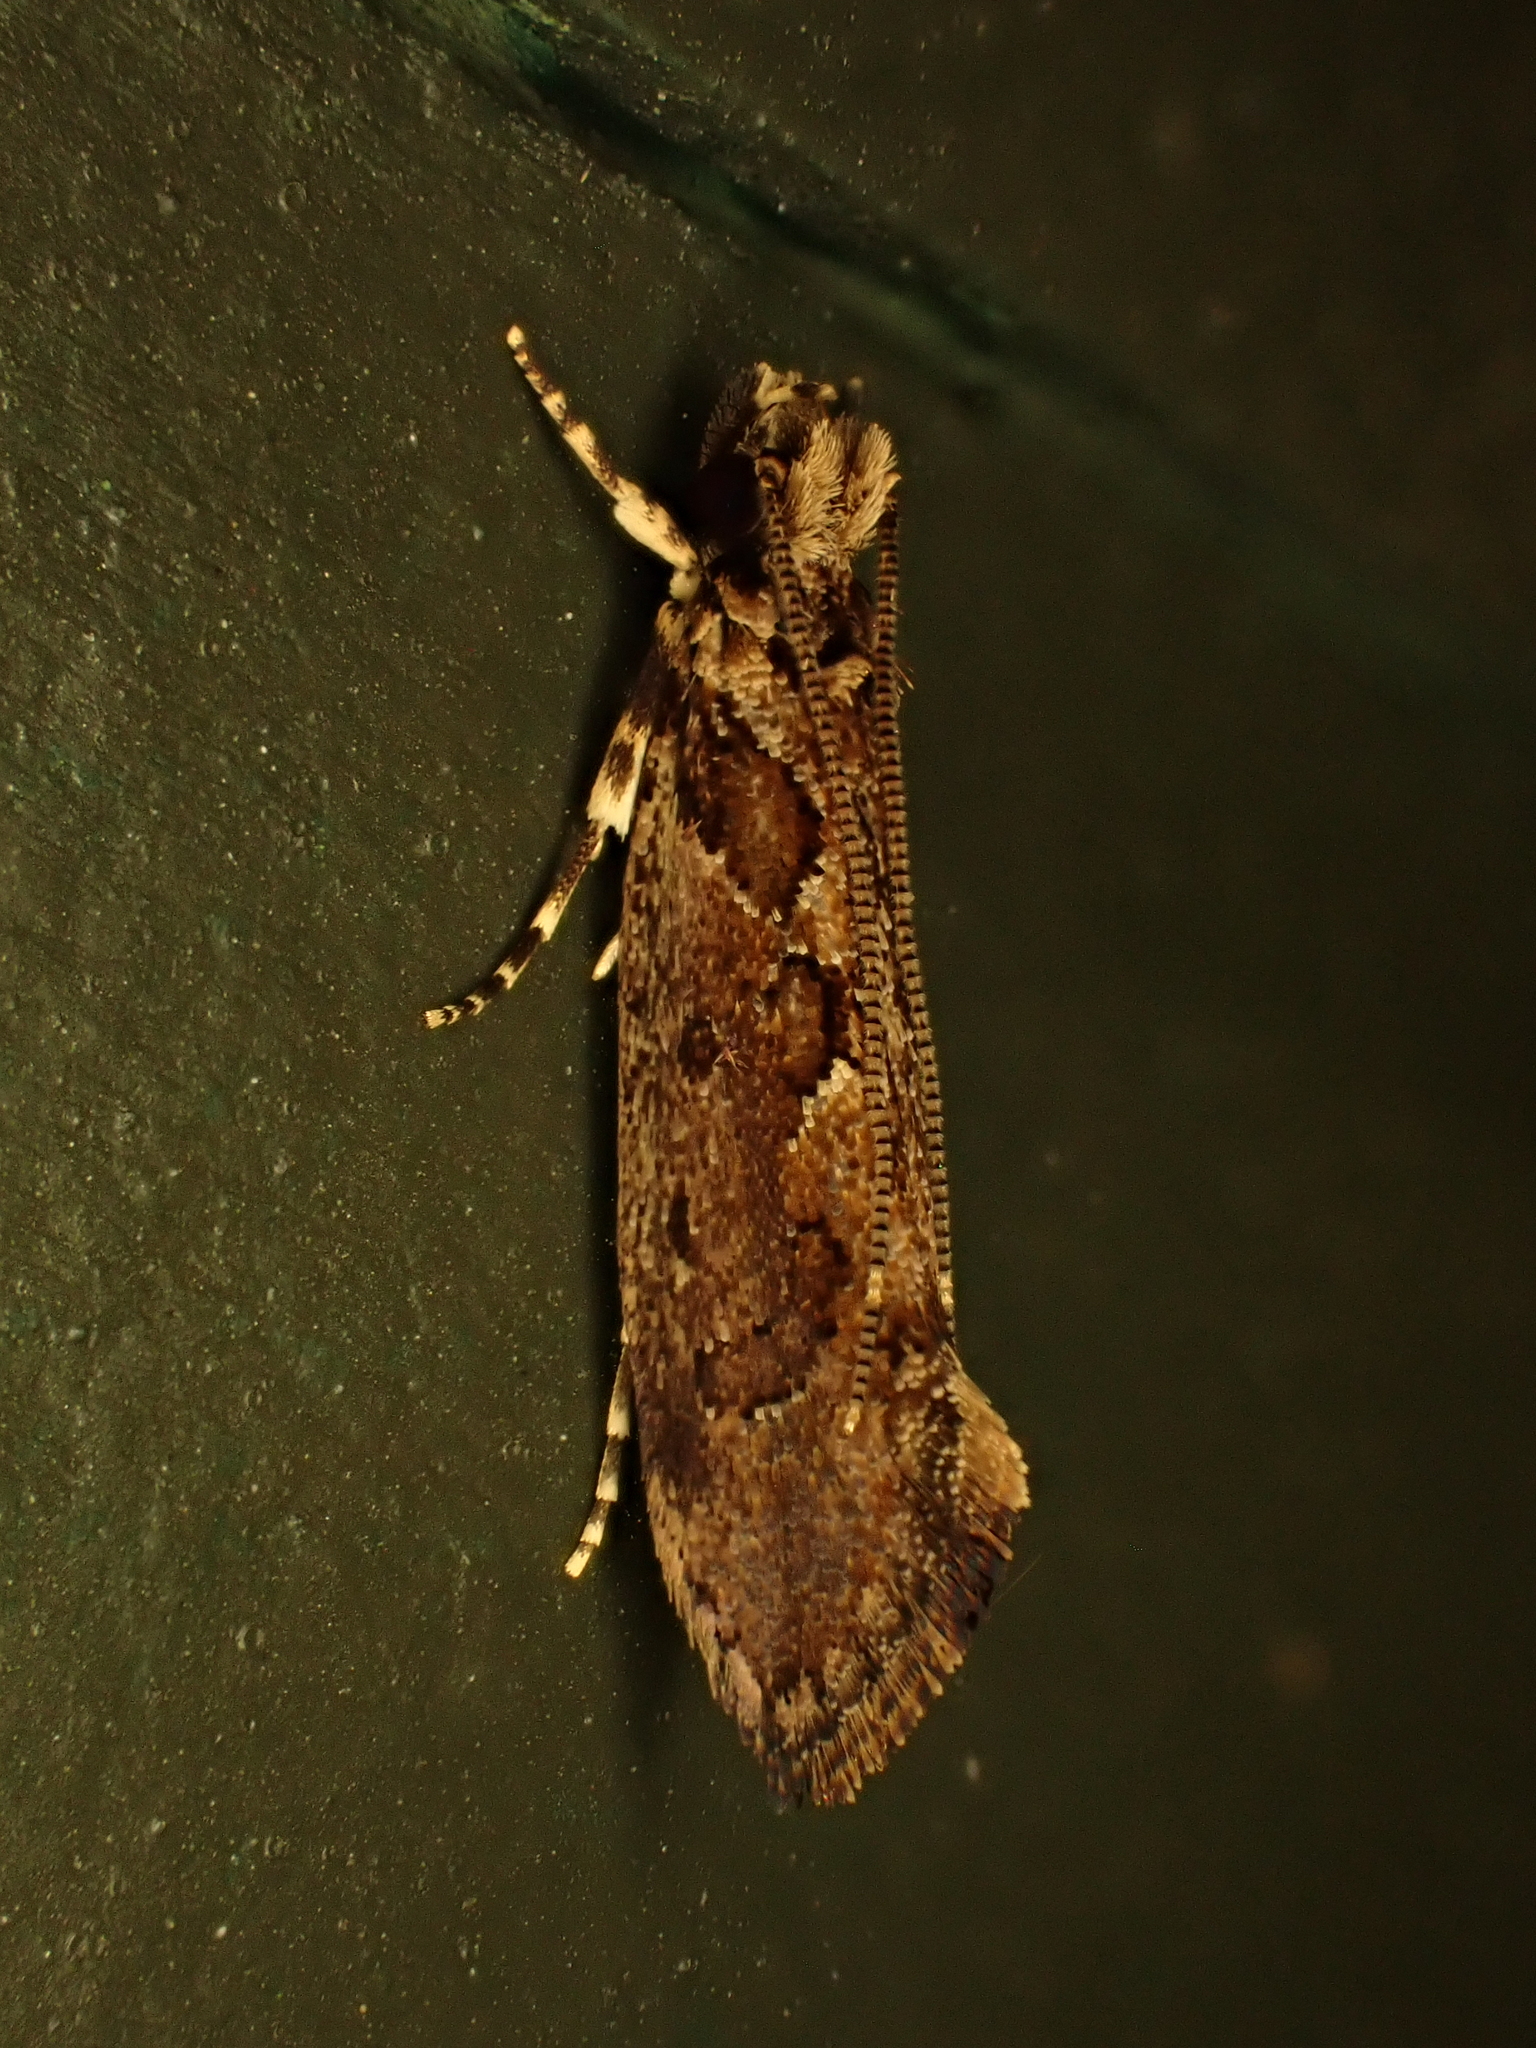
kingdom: Animalia
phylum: Arthropoda
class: Insecta
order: Lepidoptera
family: Tineidae
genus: Erechthias
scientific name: Erechthias capnitis
